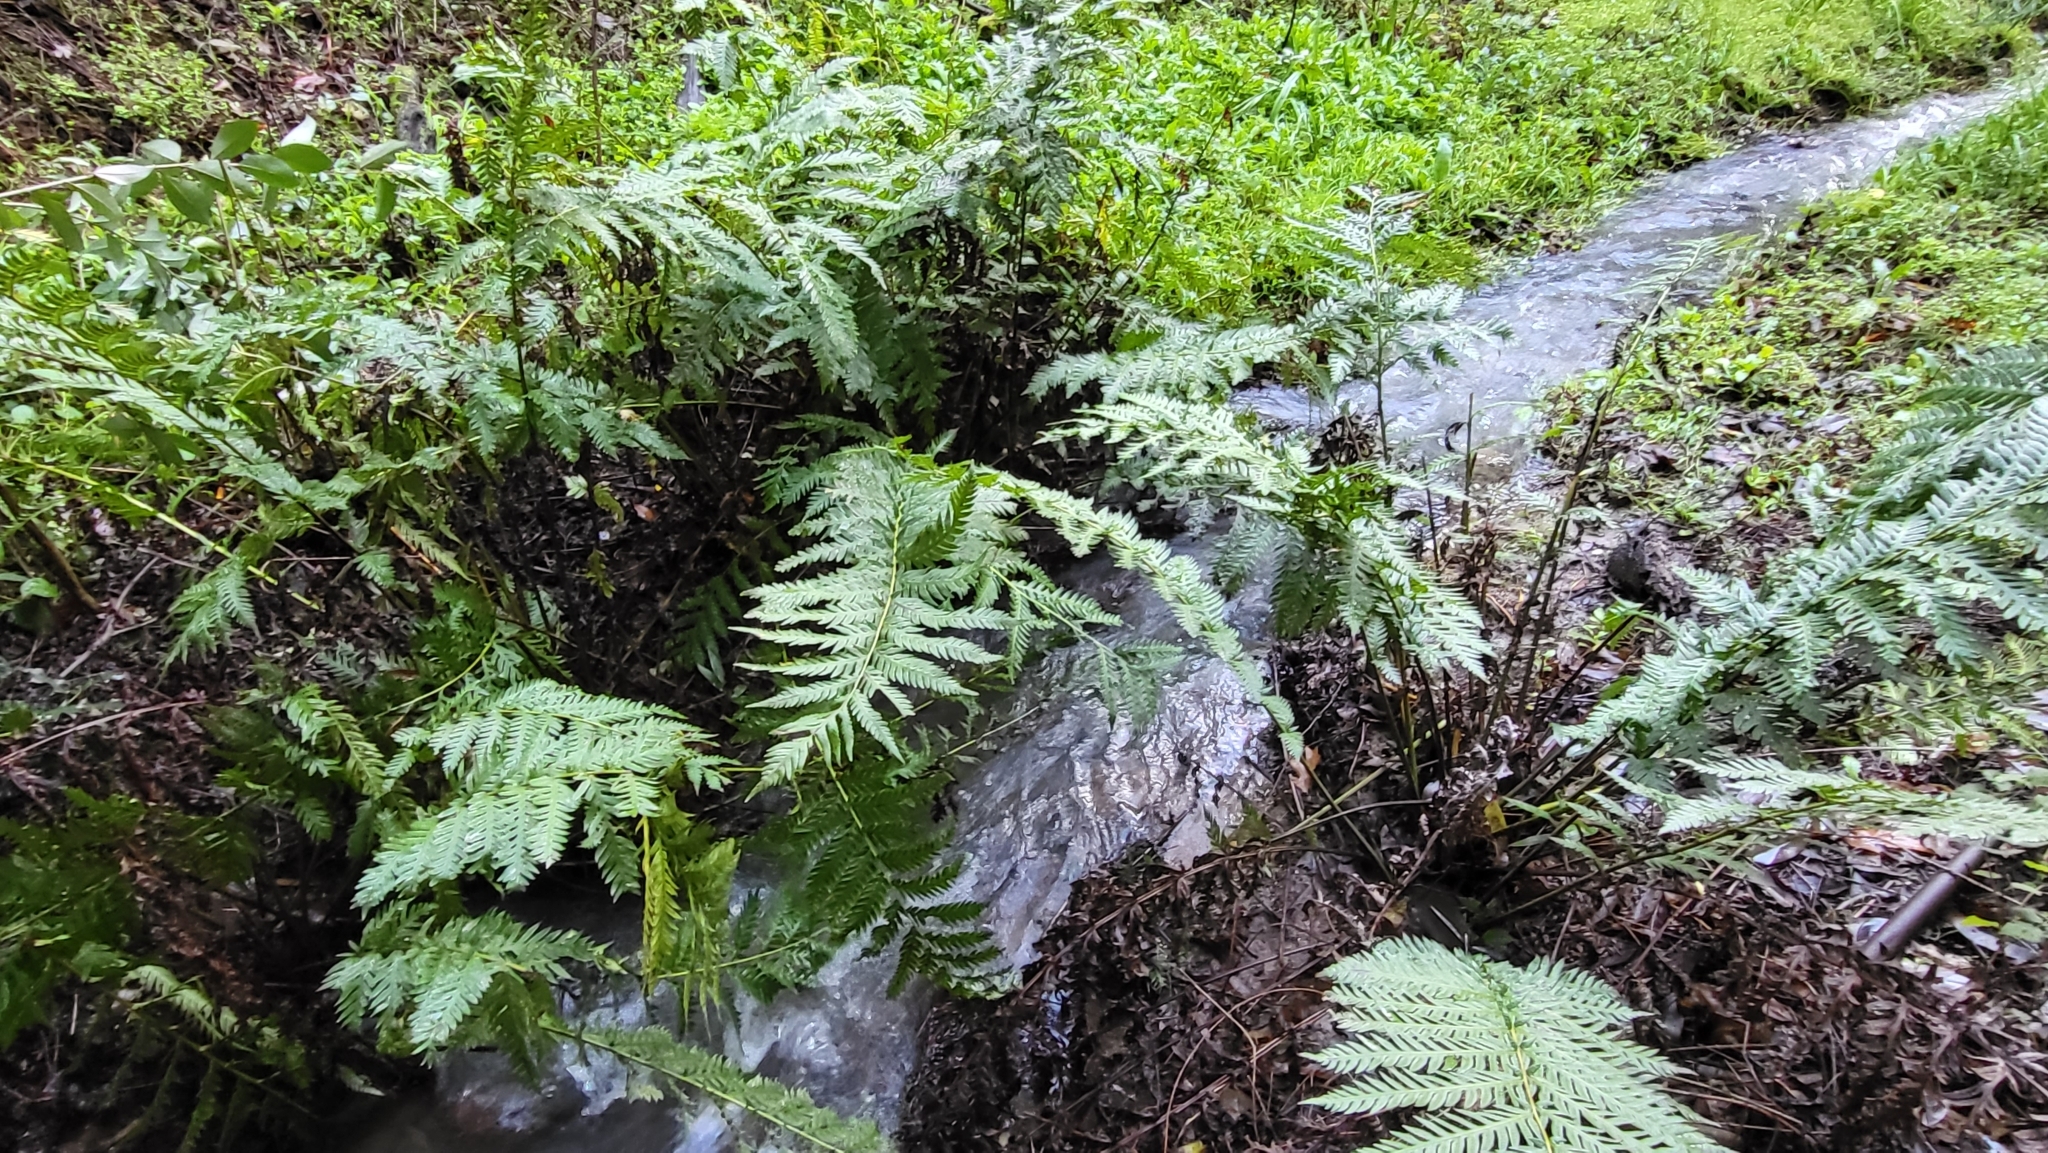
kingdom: Plantae
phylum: Tracheophyta
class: Polypodiopsida
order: Polypodiales
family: Blechnaceae
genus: Woodwardia
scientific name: Woodwardia fimbriata
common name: Giant chain fern
